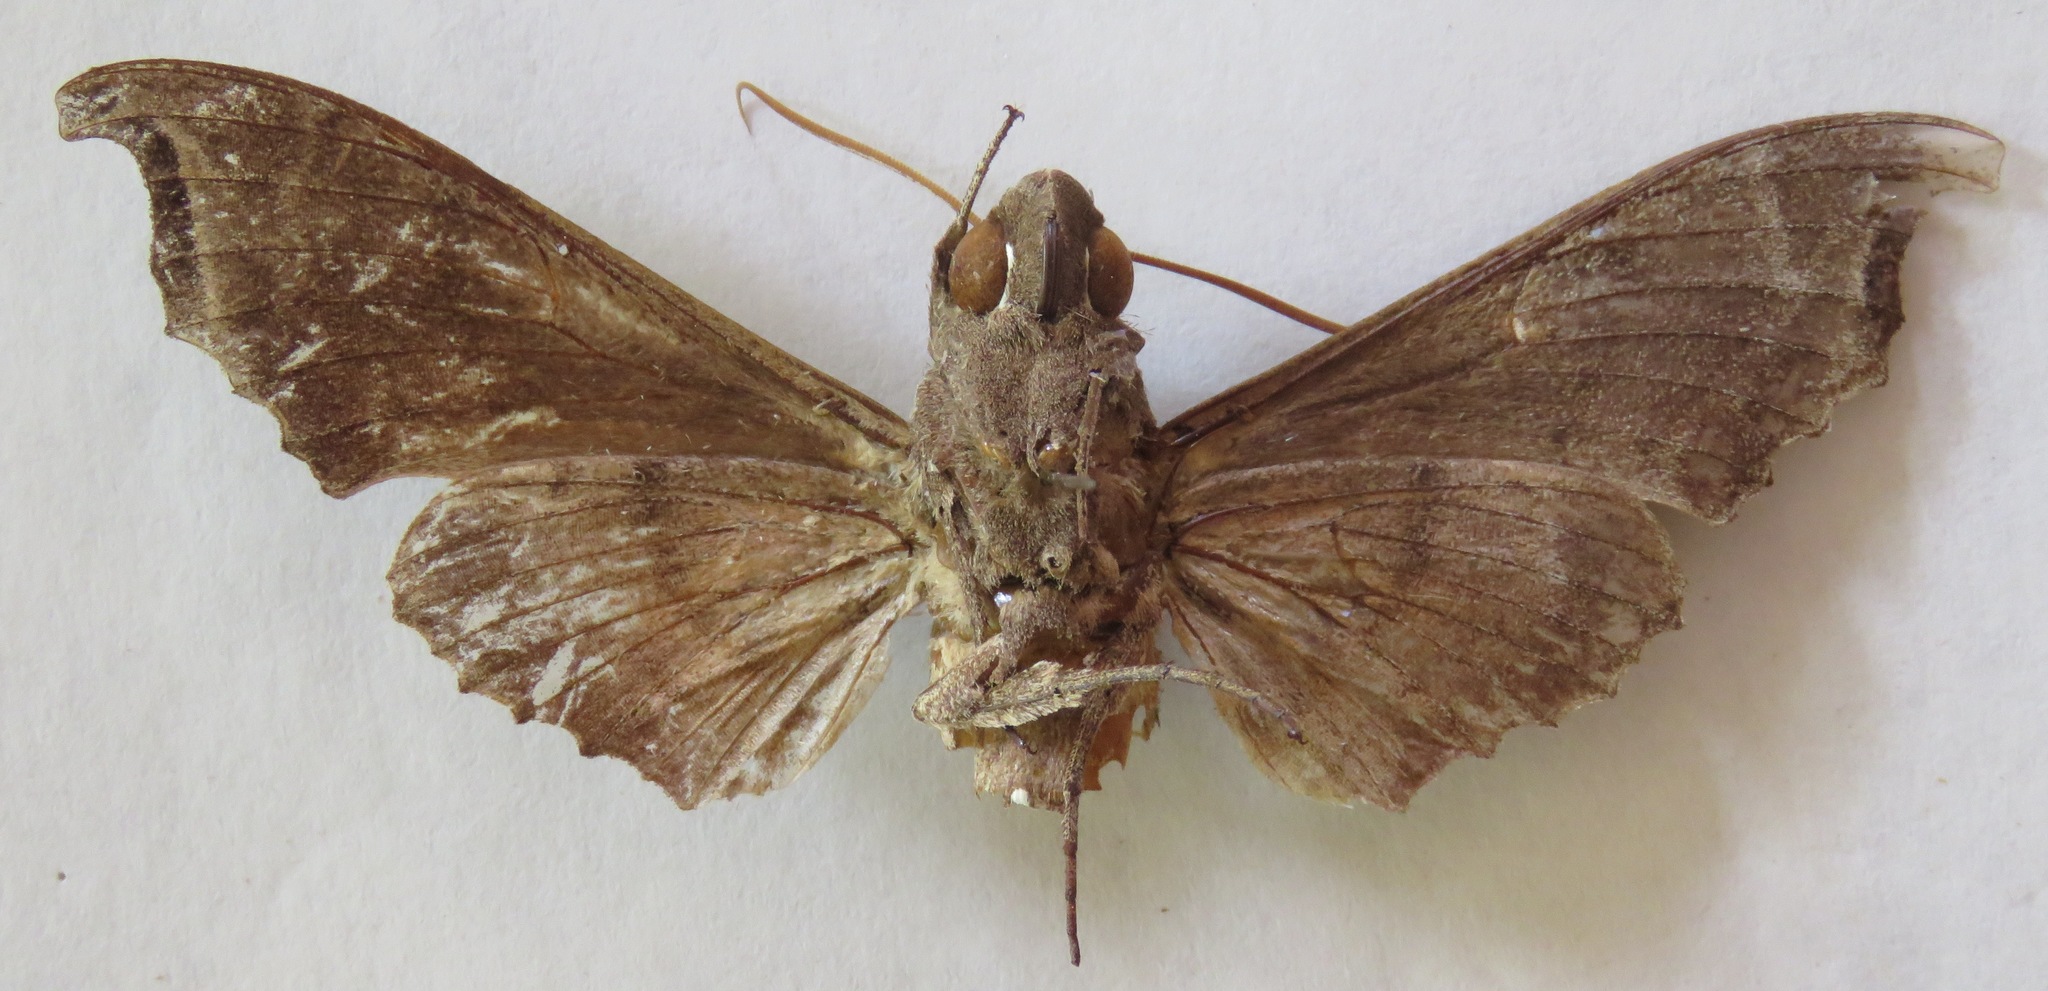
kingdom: Animalia
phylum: Arthropoda
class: Insecta
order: Lepidoptera
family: Sphingidae
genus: Madoryx
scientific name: Madoryx bubastus
